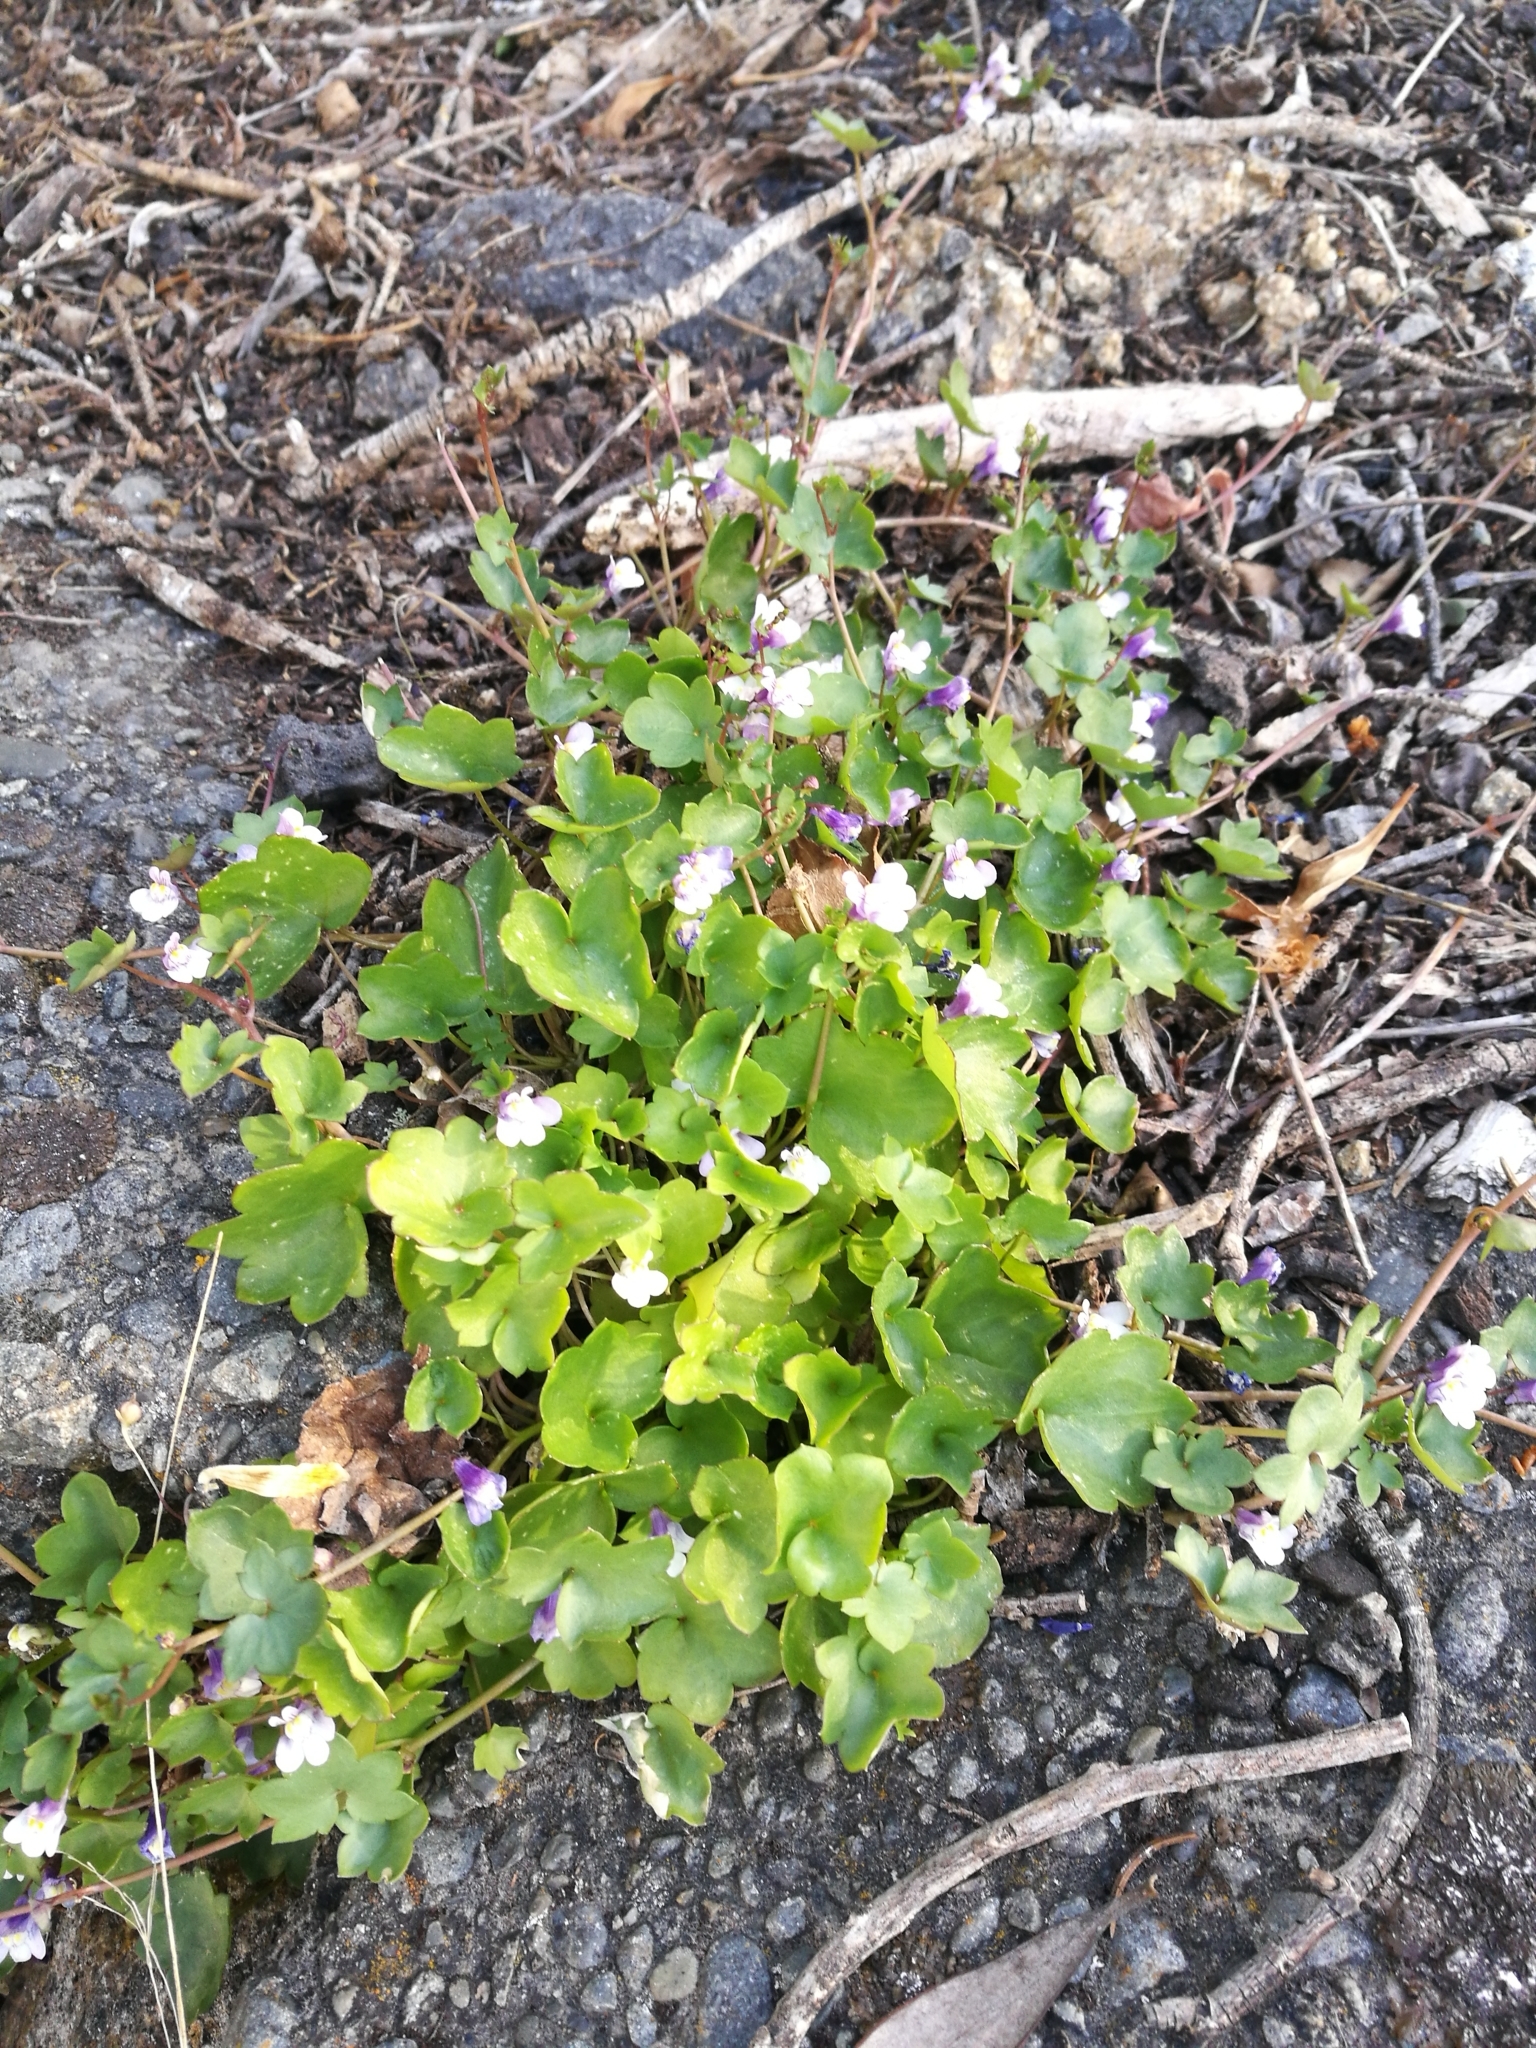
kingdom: Plantae
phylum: Tracheophyta
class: Magnoliopsida
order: Lamiales
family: Plantaginaceae
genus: Cymbalaria
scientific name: Cymbalaria muralis
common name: Ivy-leaved toadflax
